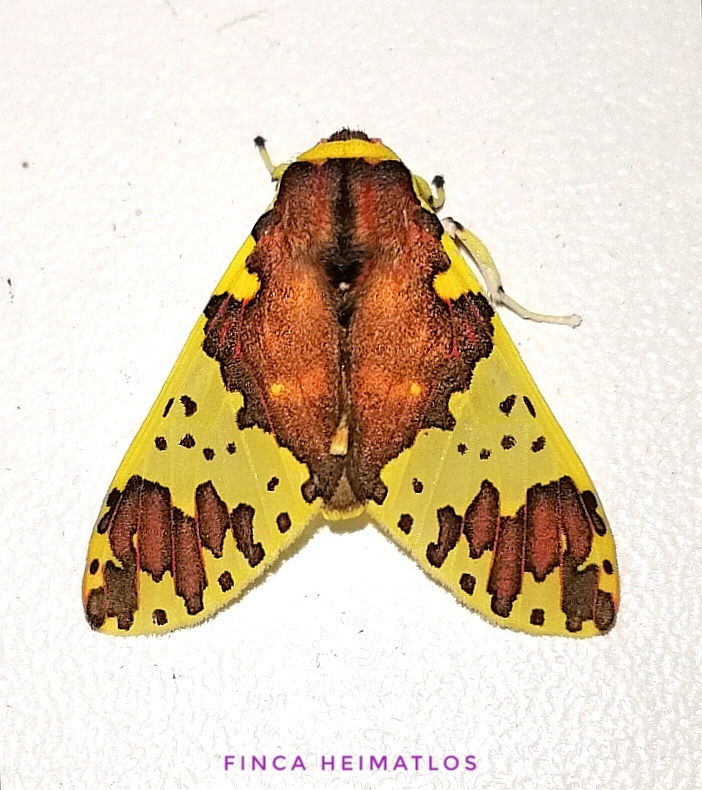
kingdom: Animalia
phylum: Arthropoda
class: Insecta
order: Lepidoptera
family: Erebidae
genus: Amaxia
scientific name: Amaxia carinosa
